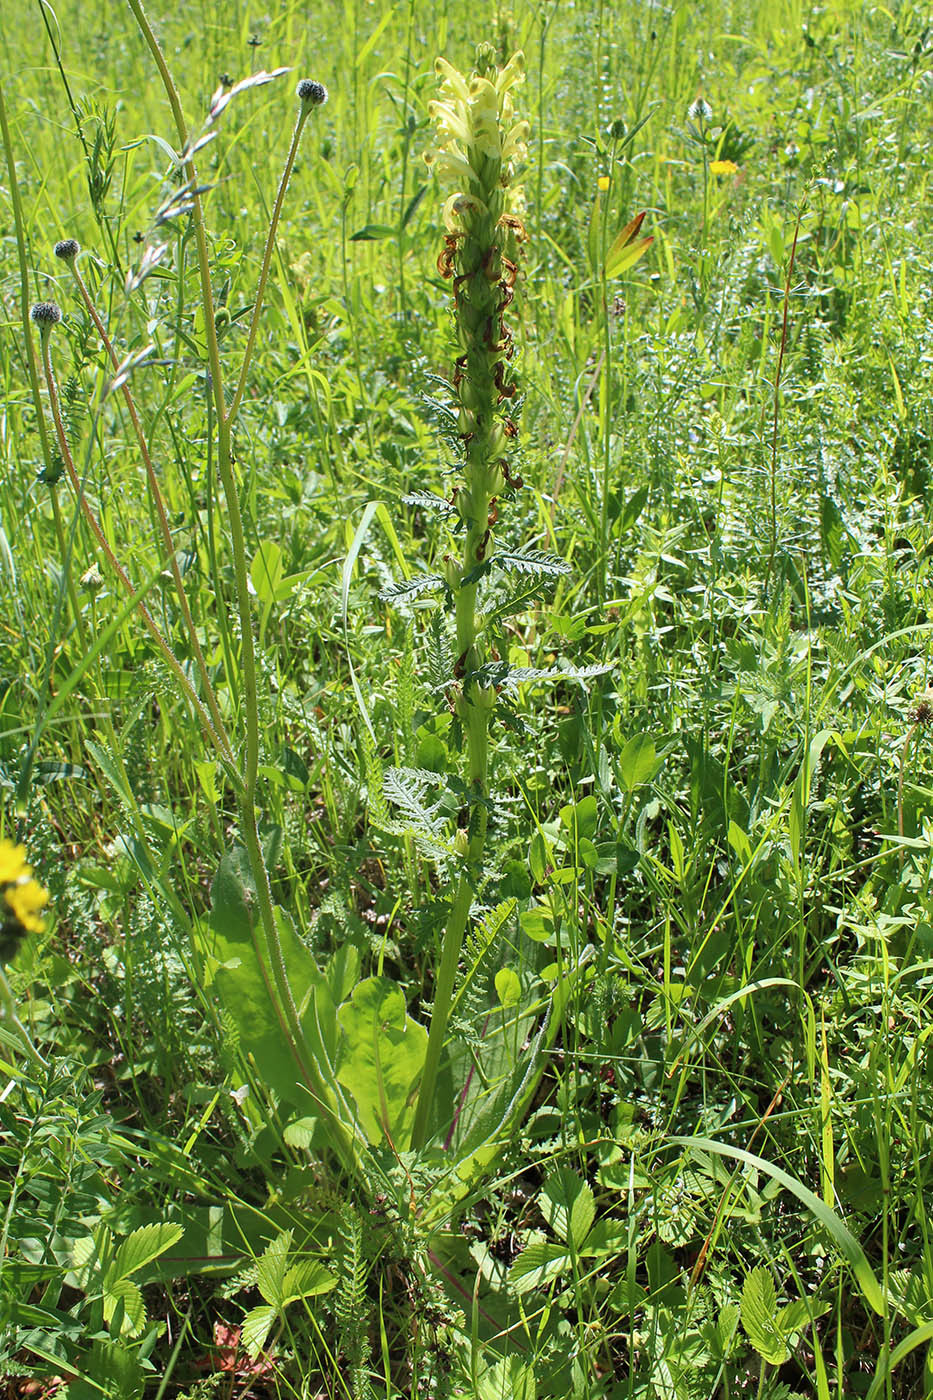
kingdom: Plantae
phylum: Tracheophyta
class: Magnoliopsida
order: Lamiales
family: Orobanchaceae
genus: Pedicularis
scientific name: Pedicularis kaufmannii
